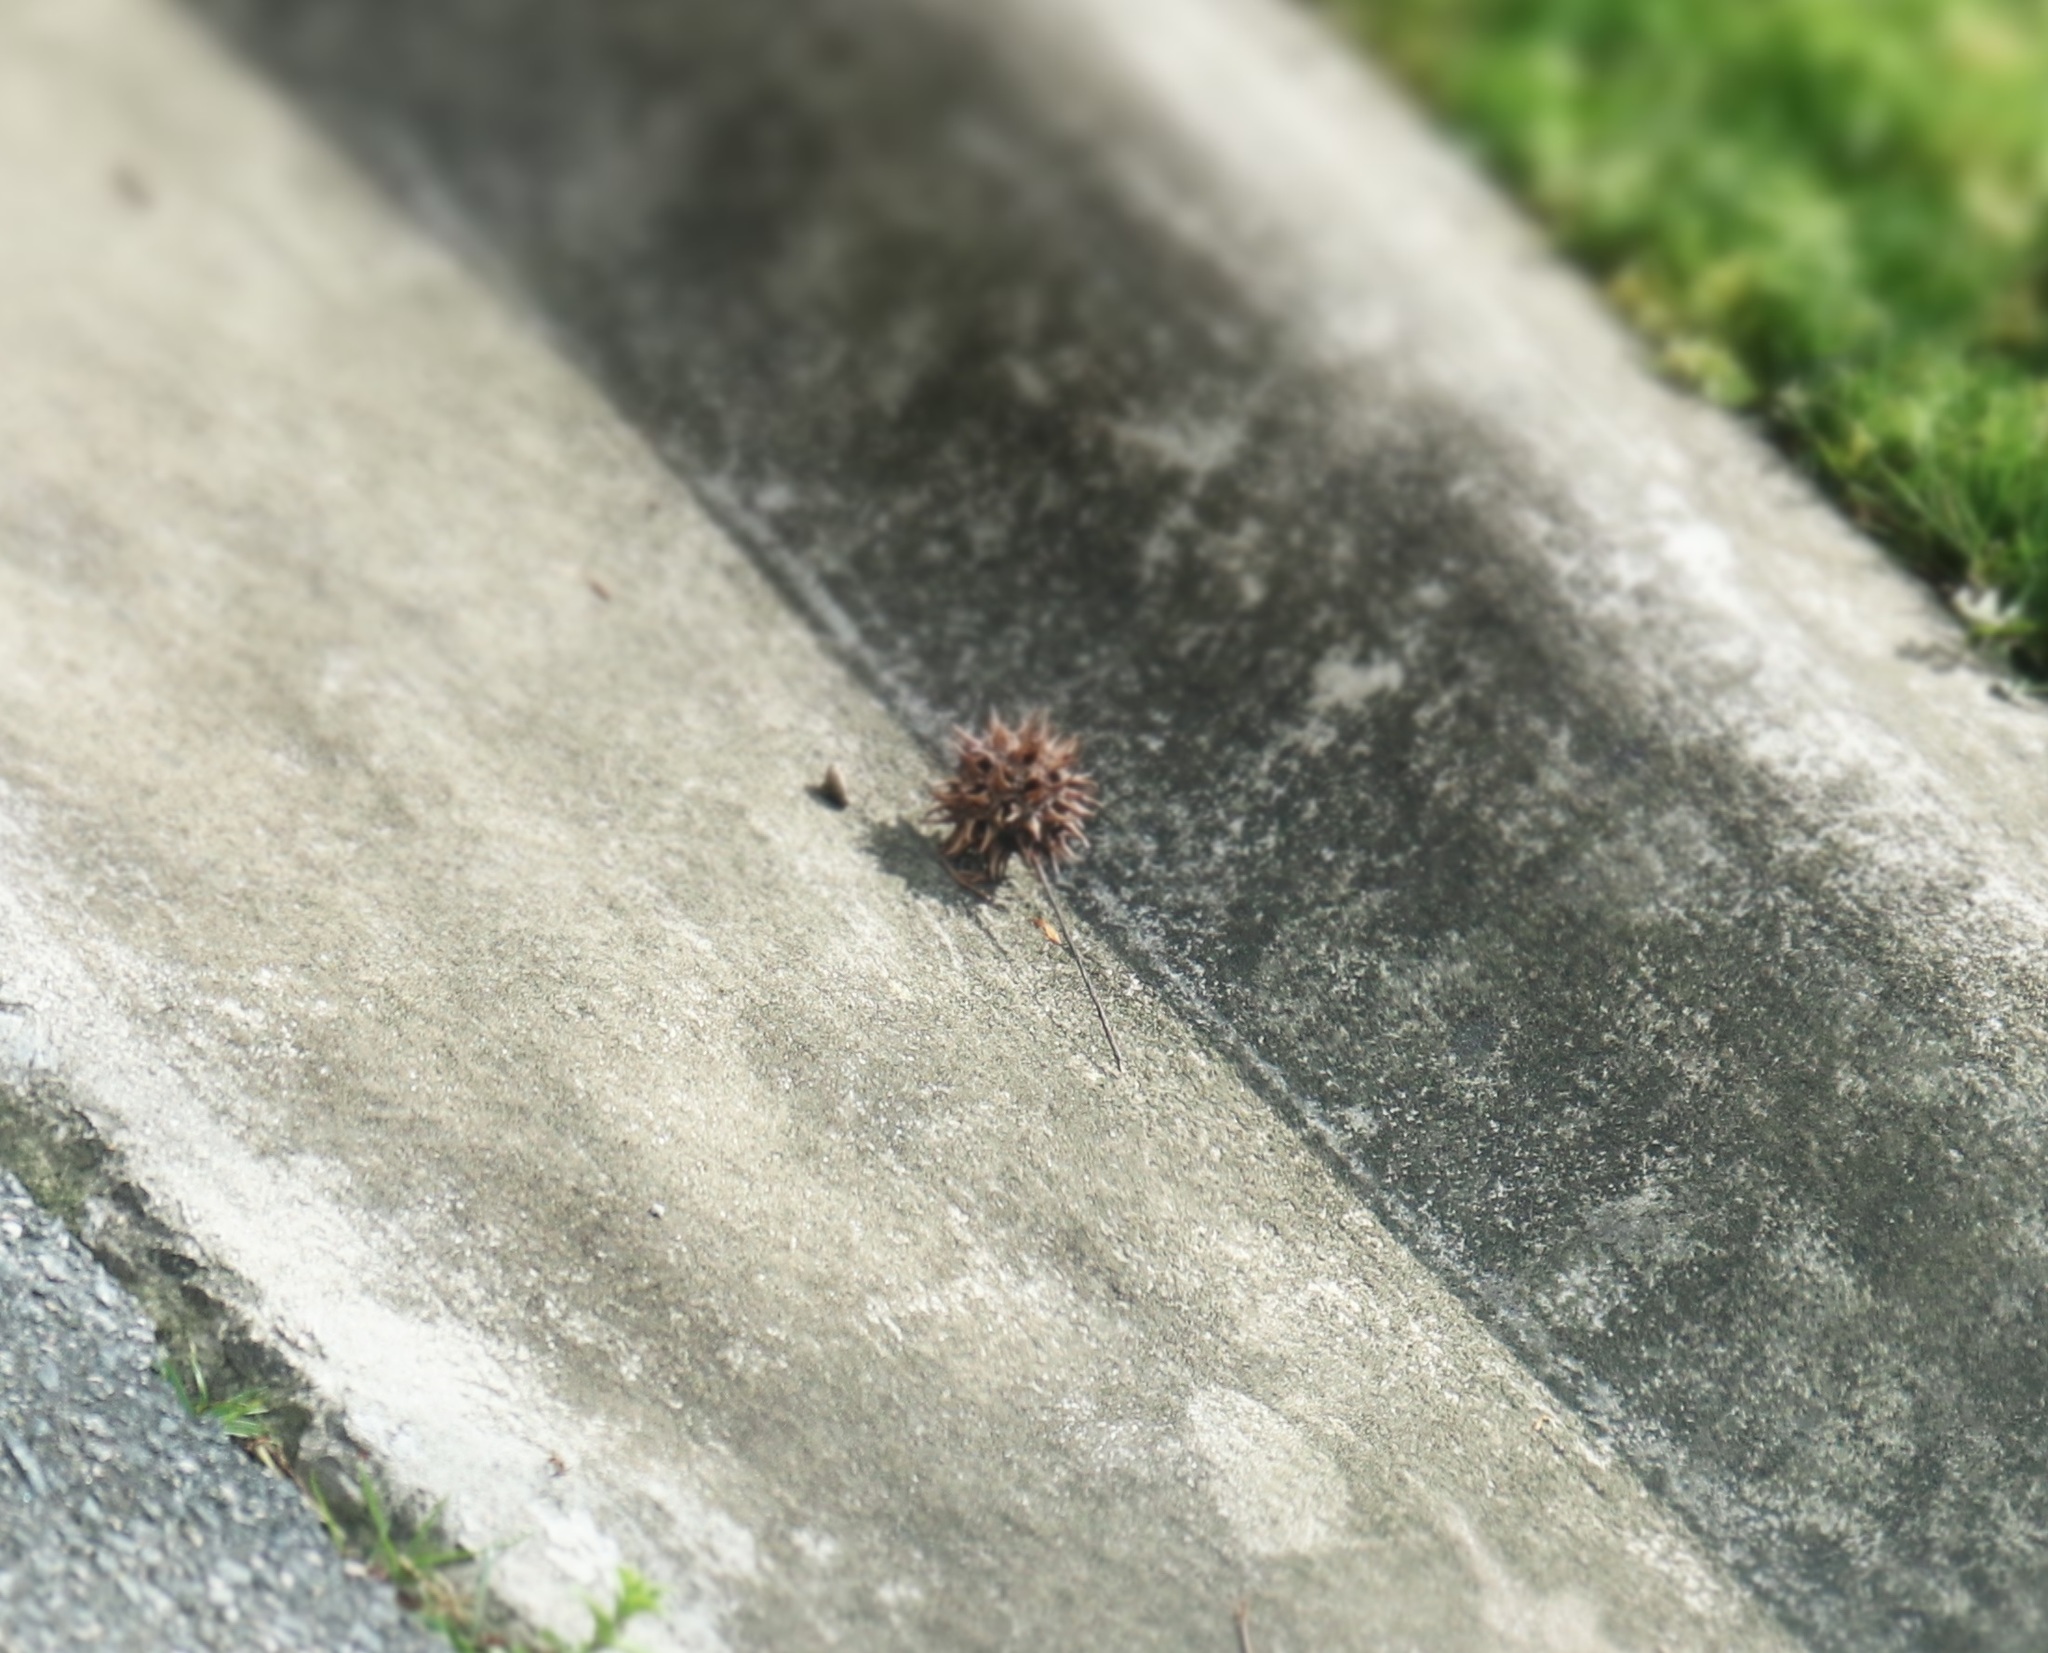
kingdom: Plantae
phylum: Tracheophyta
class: Magnoliopsida
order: Saxifragales
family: Altingiaceae
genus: Liquidambar
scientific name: Liquidambar styraciflua
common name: Sweet gum
